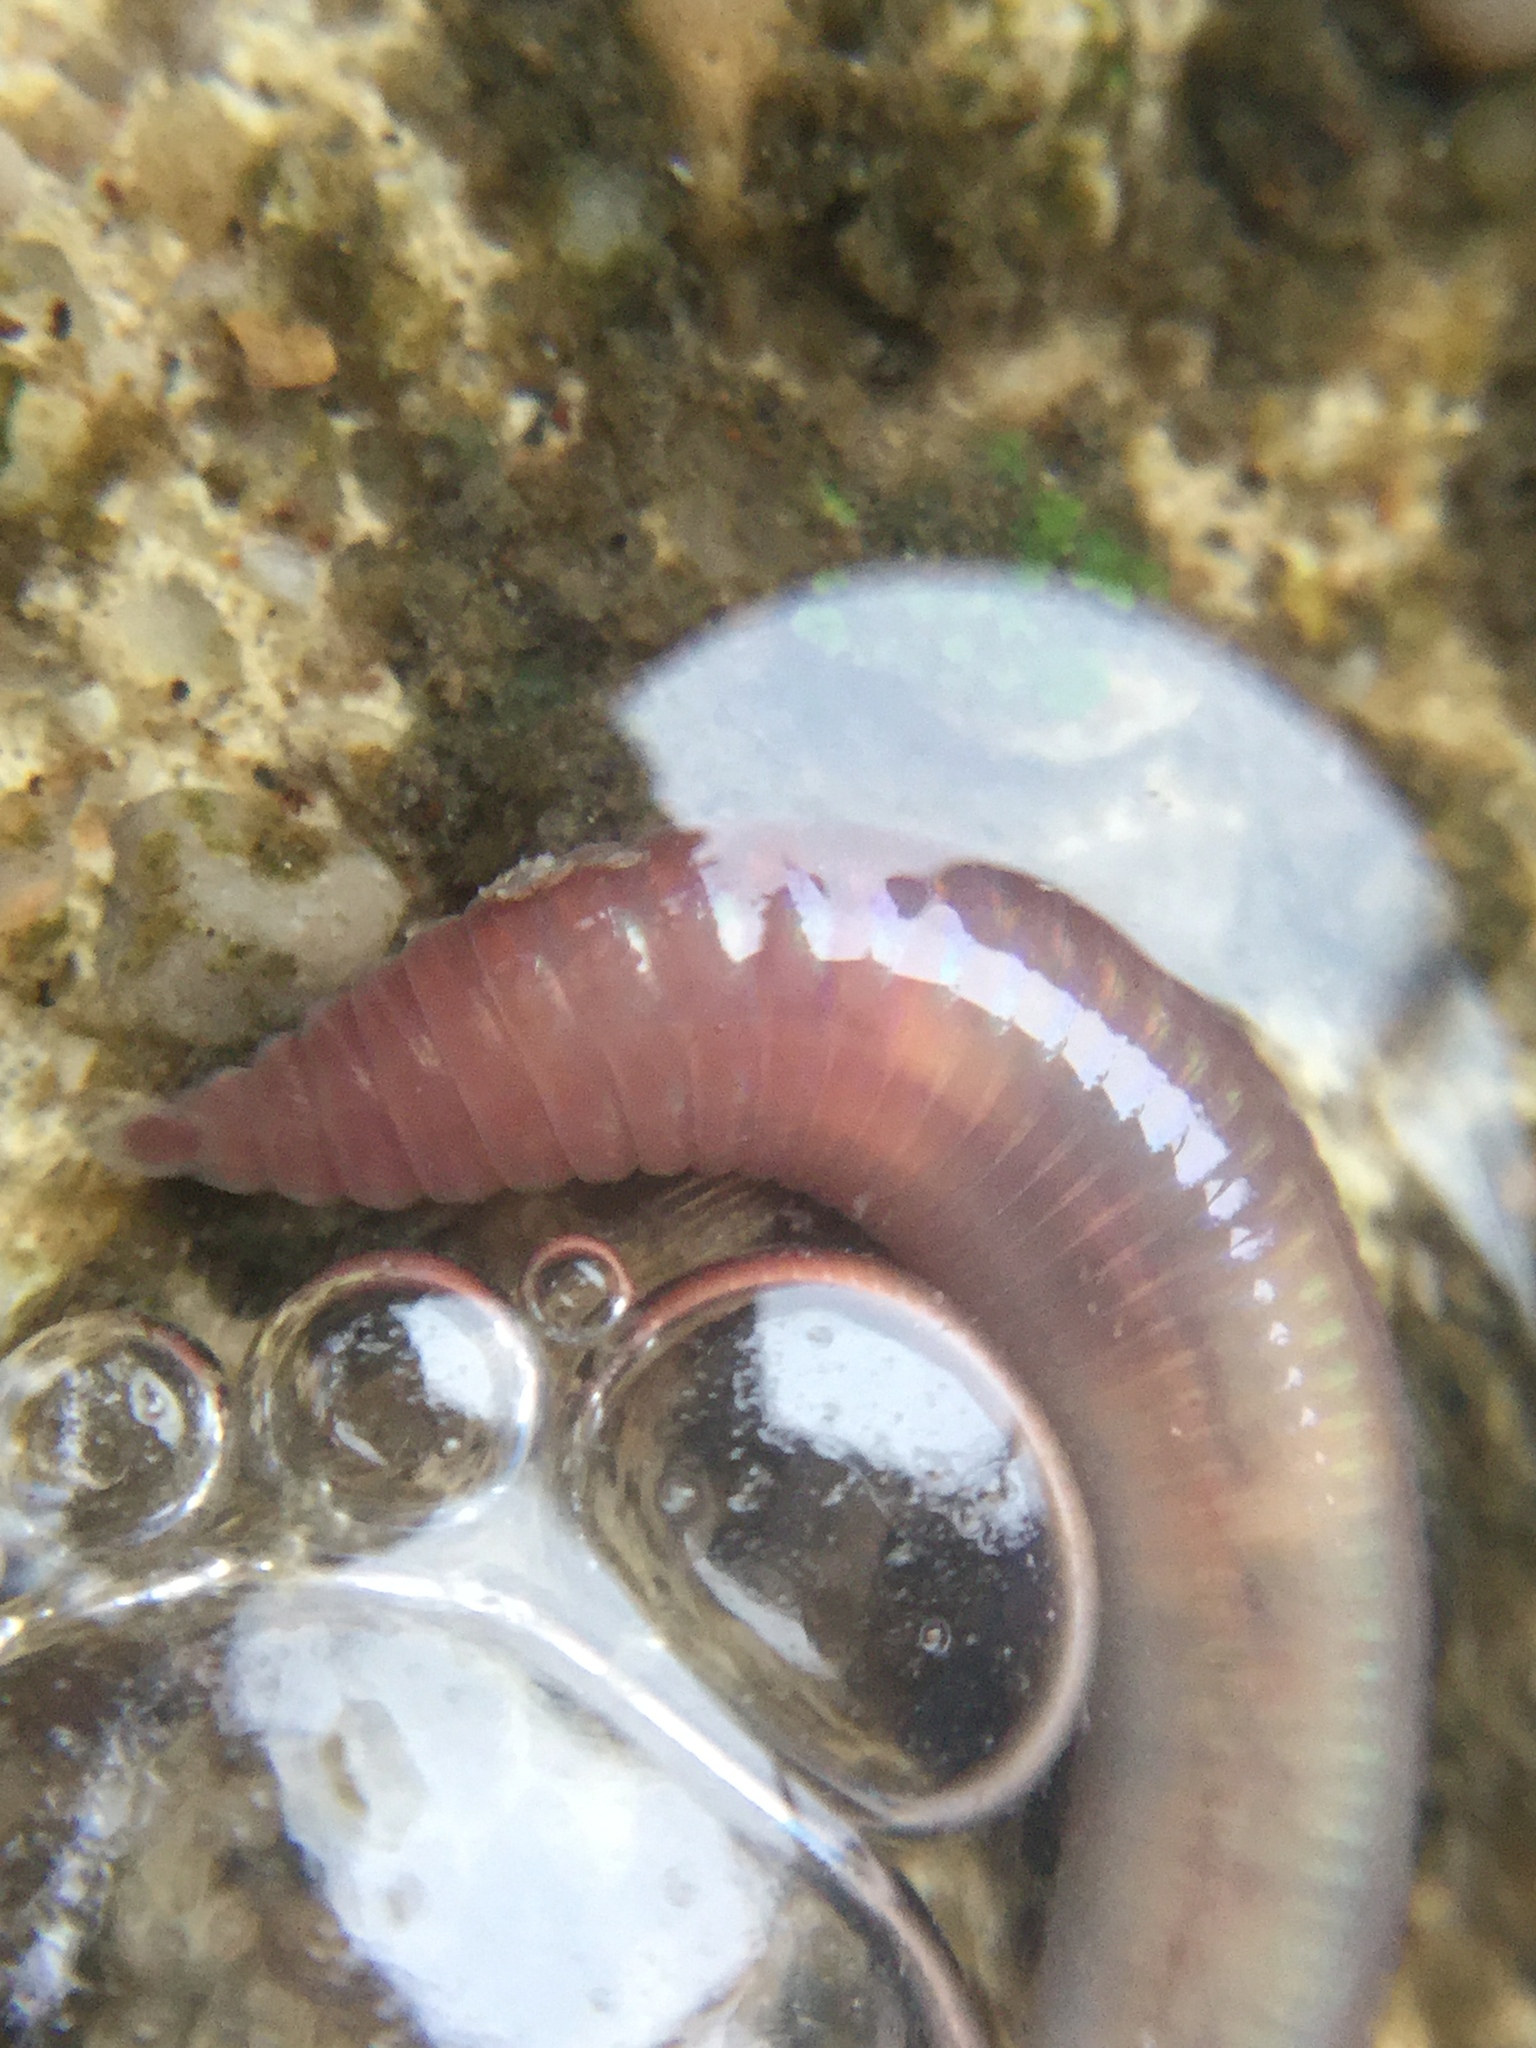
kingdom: Animalia
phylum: Annelida
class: Clitellata
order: Crassiclitellata
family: Lumbricidae
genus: Lumbricus
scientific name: Lumbricus terrestris
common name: Common earthworm
